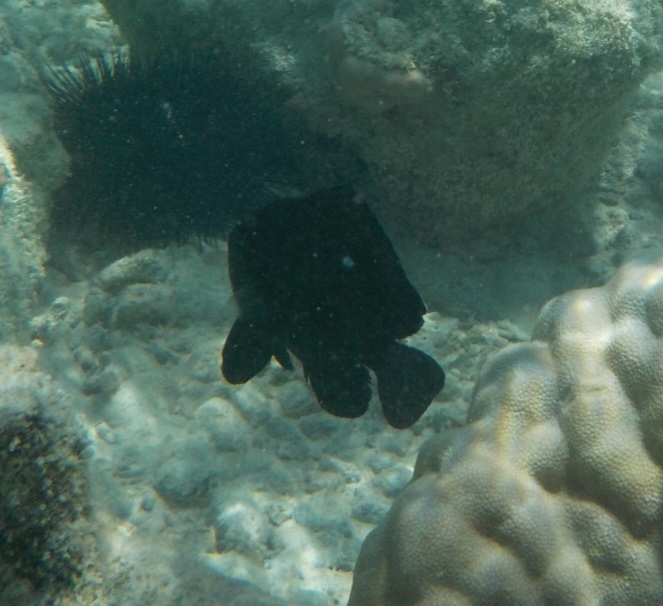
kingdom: Animalia
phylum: Chordata
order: Perciformes
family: Pomacentridae
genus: Dascyllus
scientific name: Dascyllus trimaculatus
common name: Threespot dascyllus
